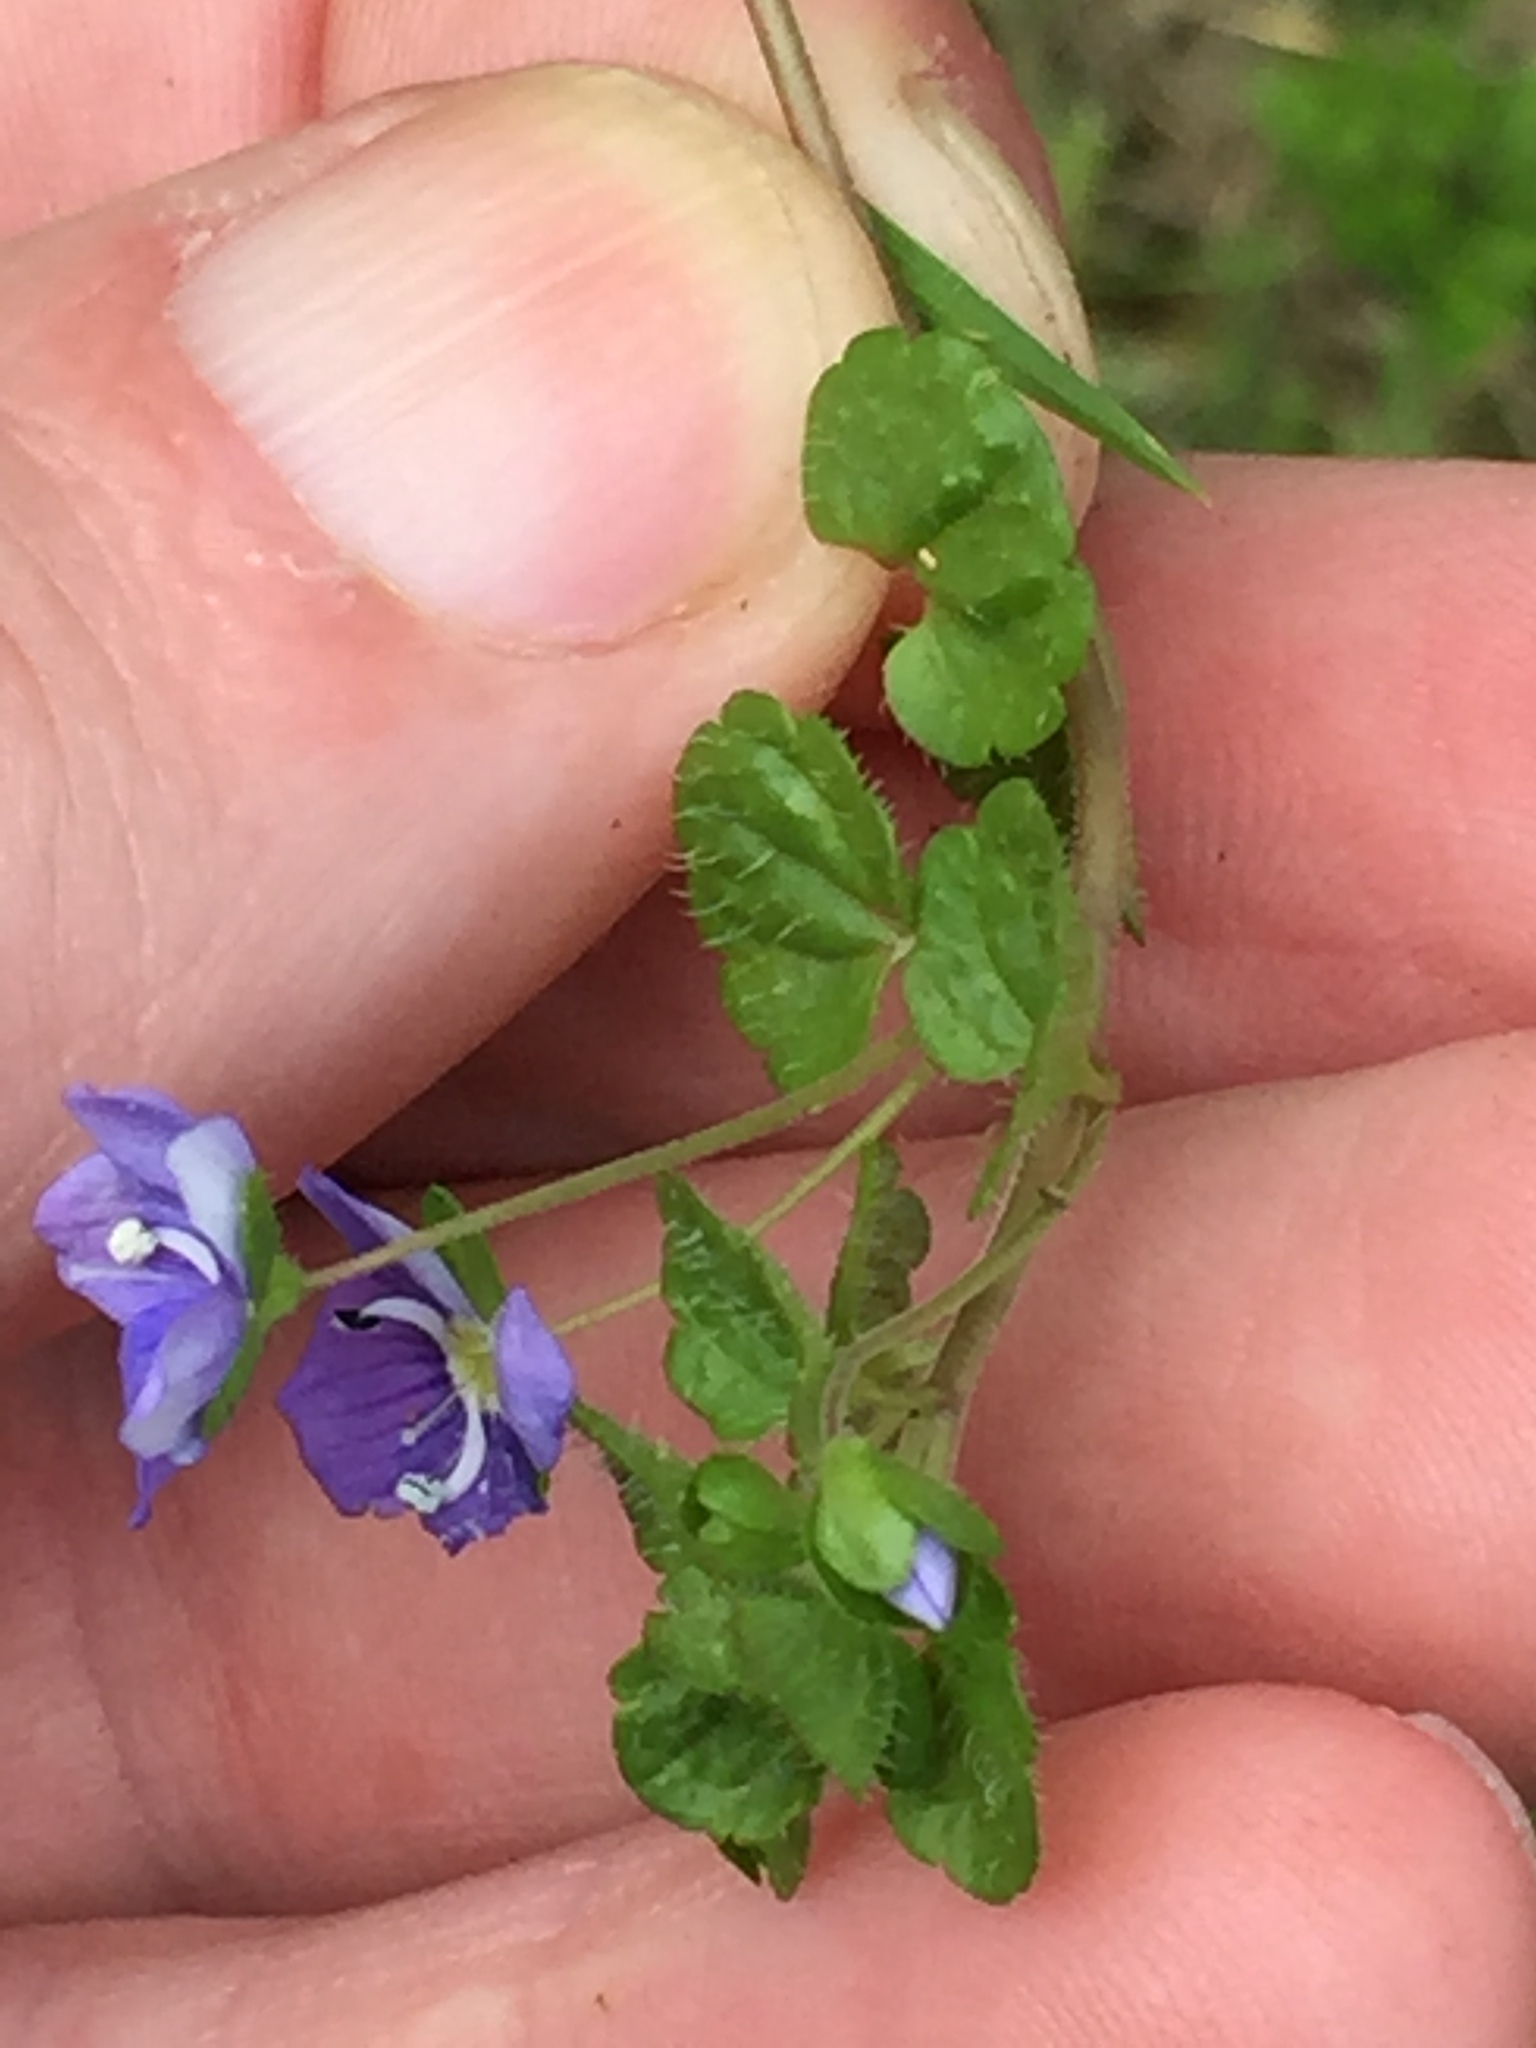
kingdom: Plantae
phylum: Tracheophyta
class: Magnoliopsida
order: Lamiales
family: Plantaginaceae
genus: Veronica
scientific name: Veronica filiformis
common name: Slender speedwell
